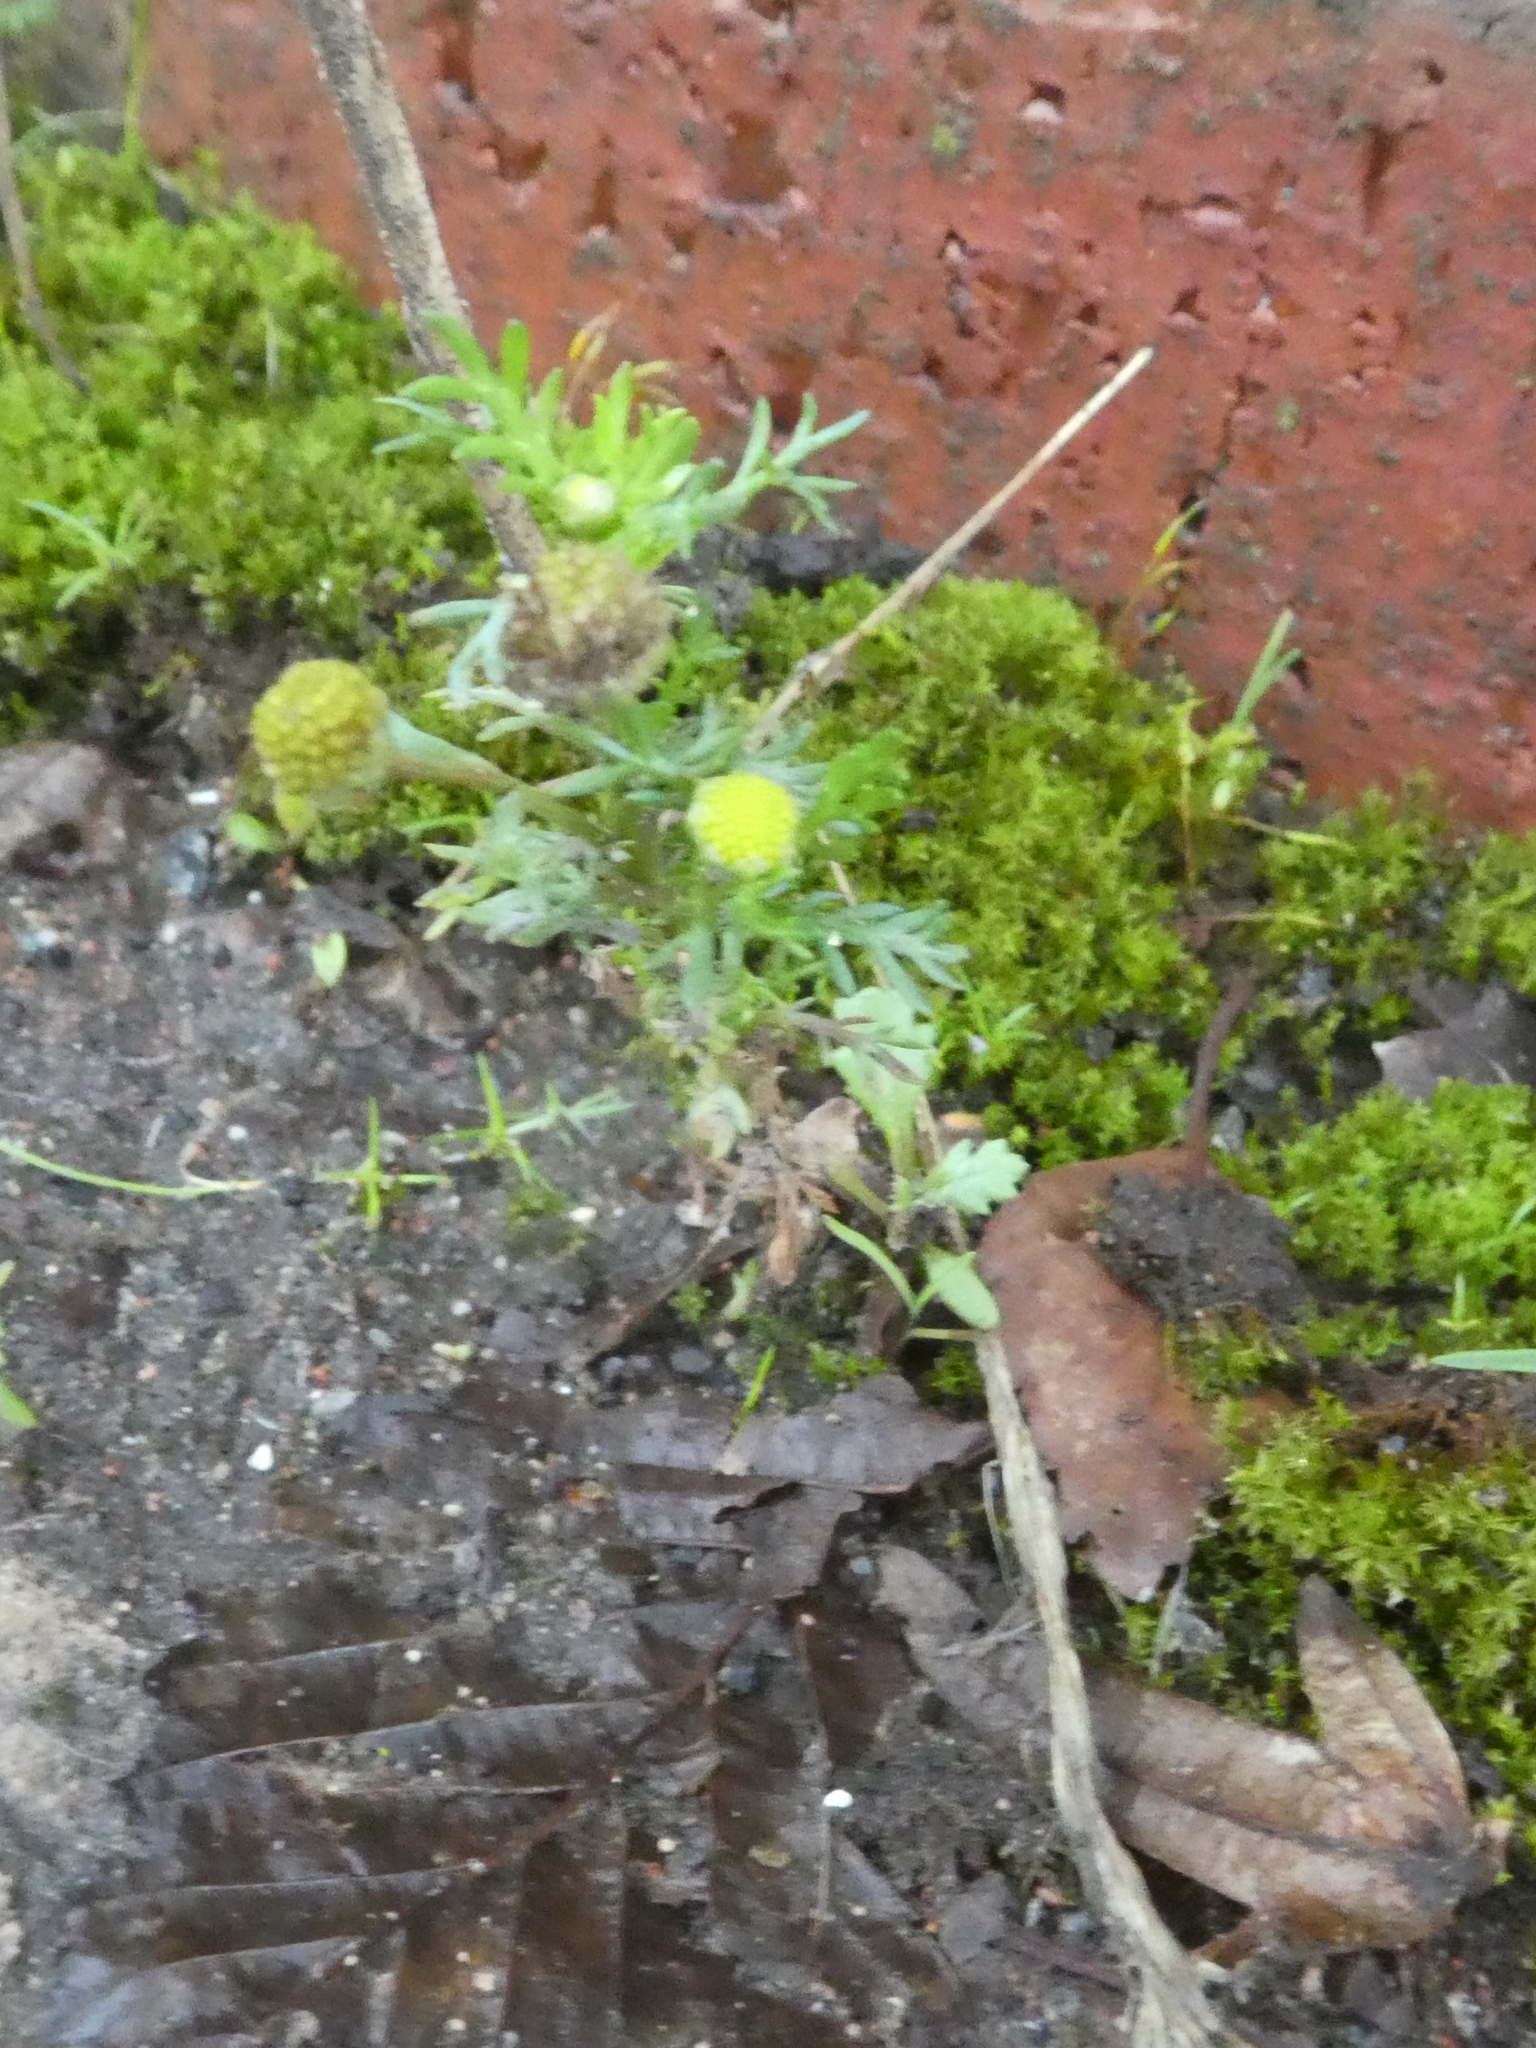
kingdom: Plantae
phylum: Tracheophyta
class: Magnoliopsida
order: Asterales
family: Asteraceae
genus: Matricaria
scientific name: Matricaria discoidea
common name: Disc mayweed
